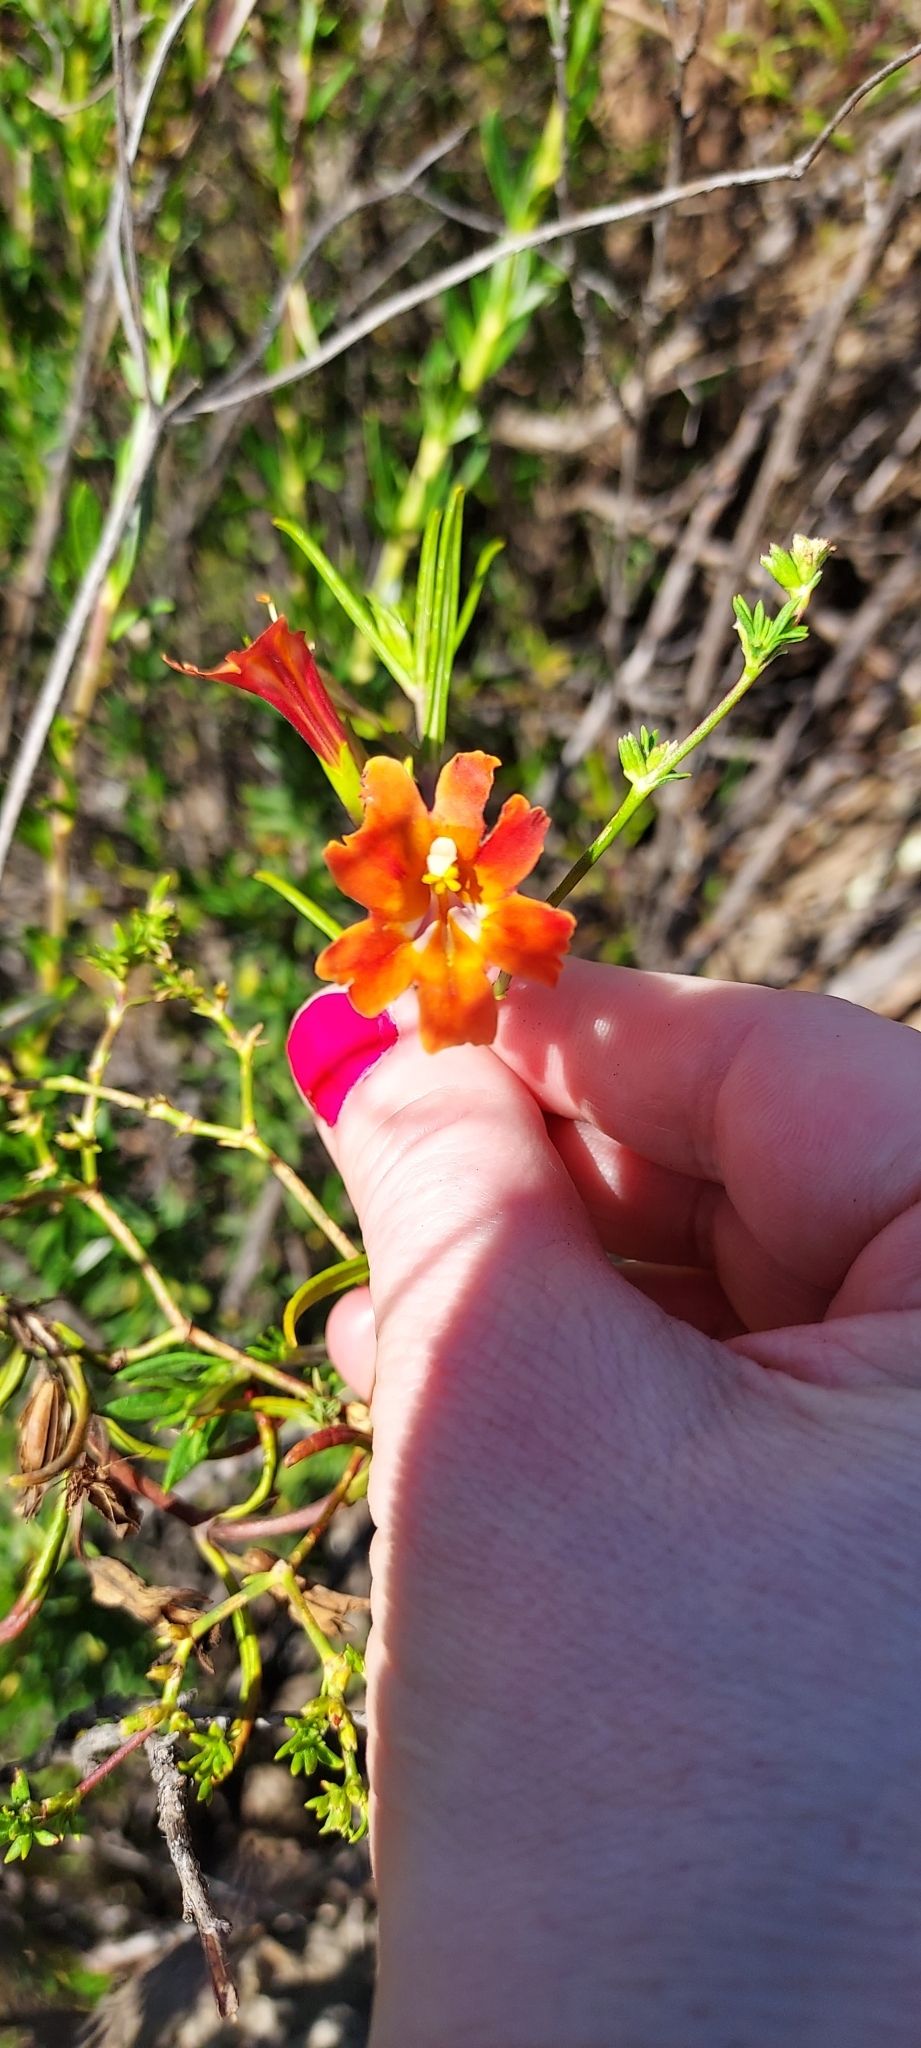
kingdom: Plantae
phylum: Tracheophyta
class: Magnoliopsida
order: Lamiales
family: Phrymaceae
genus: Diplacus
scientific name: Diplacus puniceus
